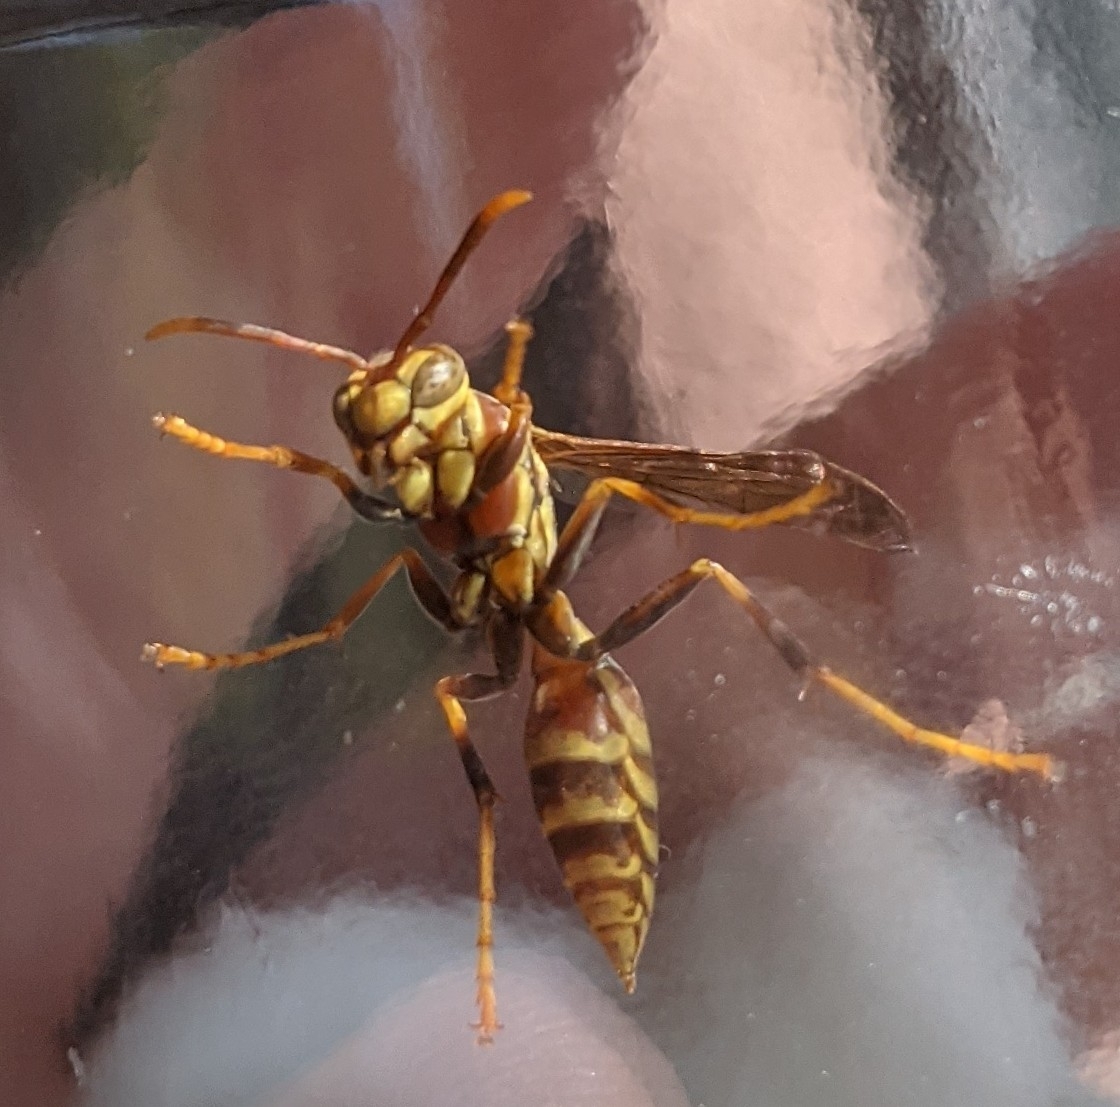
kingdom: Animalia
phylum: Arthropoda
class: Insecta
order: Hymenoptera
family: Eumenidae
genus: Polistes
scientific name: Polistes exclamans
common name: Paper wasp
